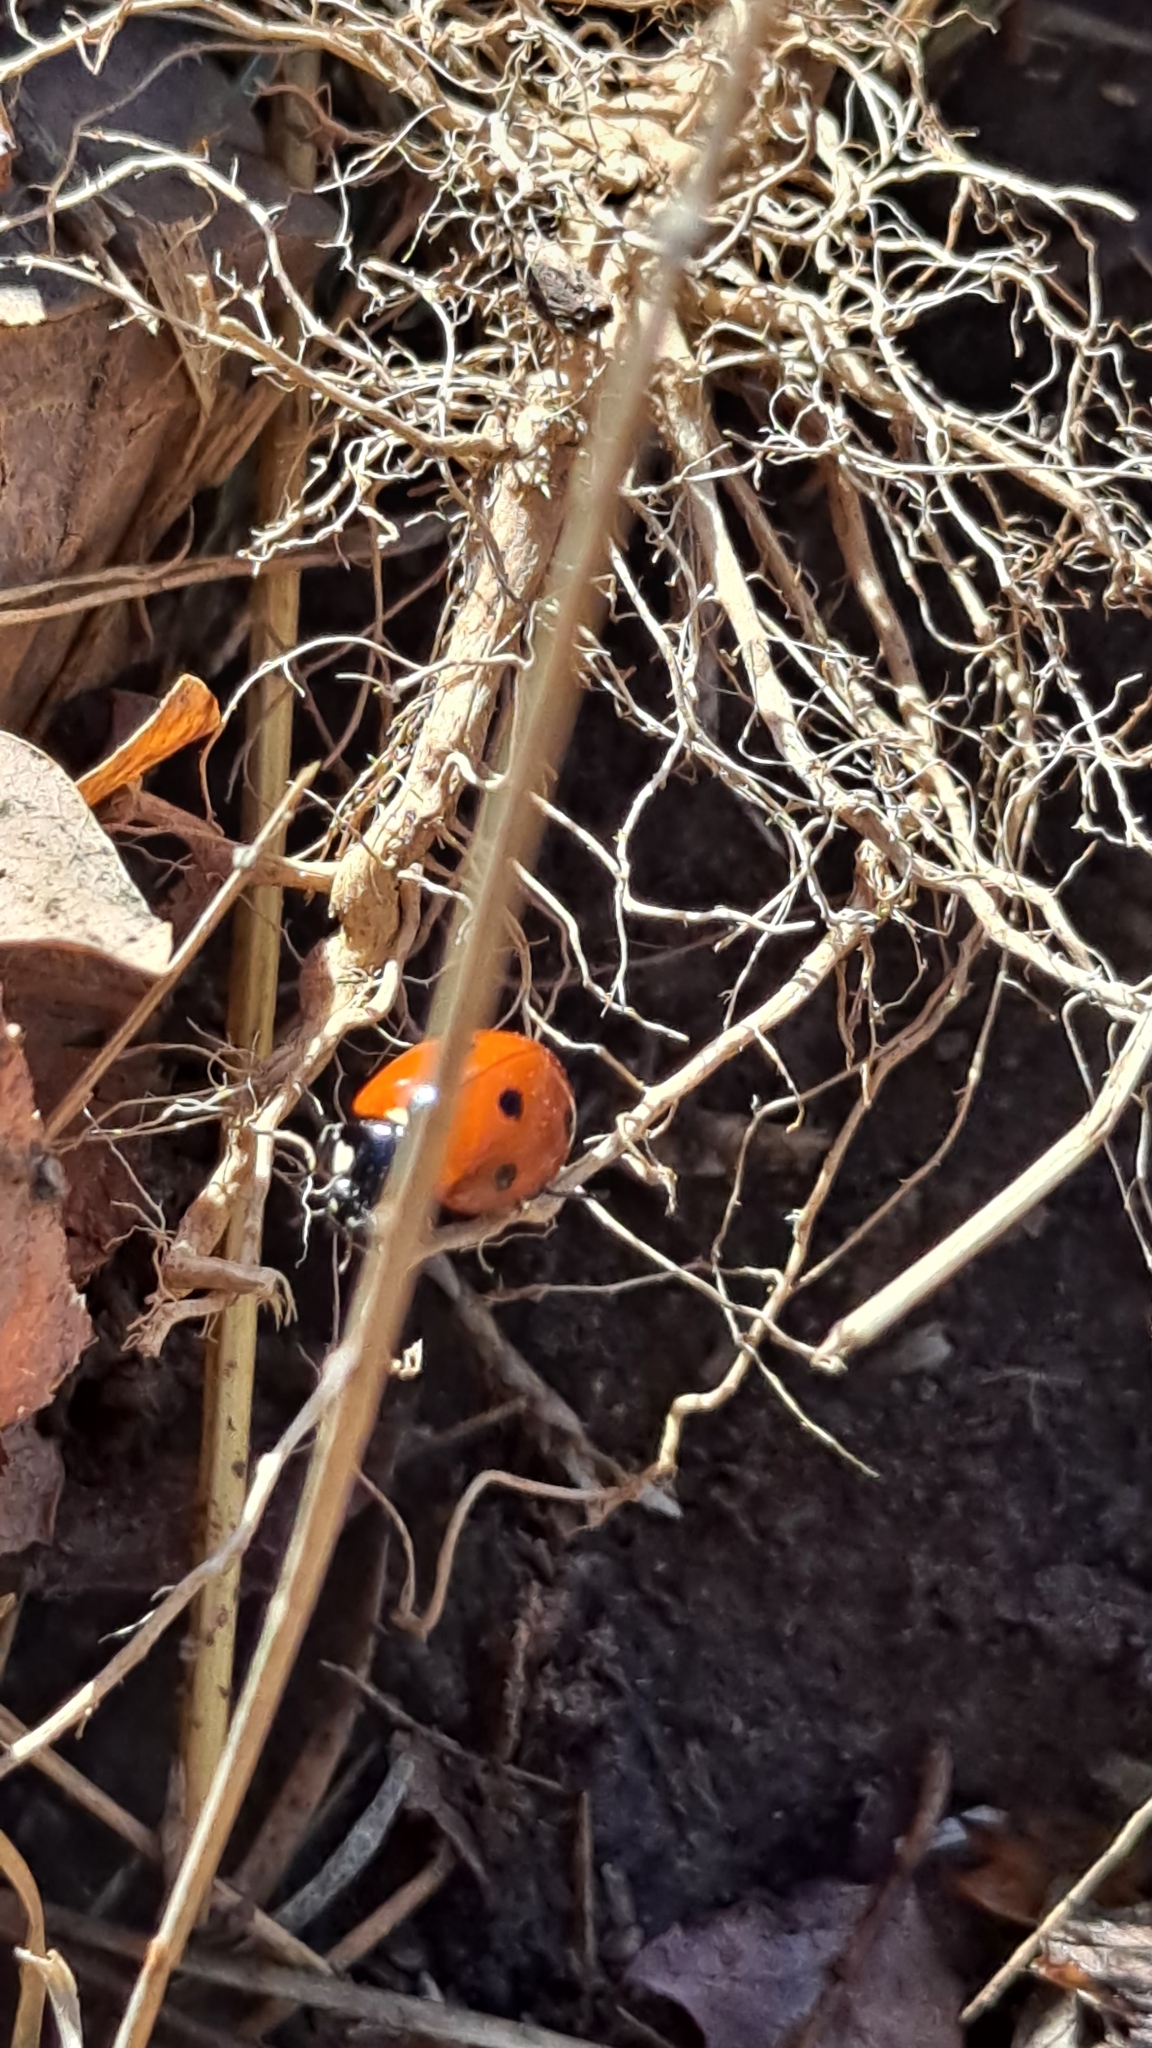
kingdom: Animalia
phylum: Arthropoda
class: Insecta
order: Coleoptera
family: Coccinellidae
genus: Coccinella
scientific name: Coccinella septempunctata
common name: Sevenspotted lady beetle
